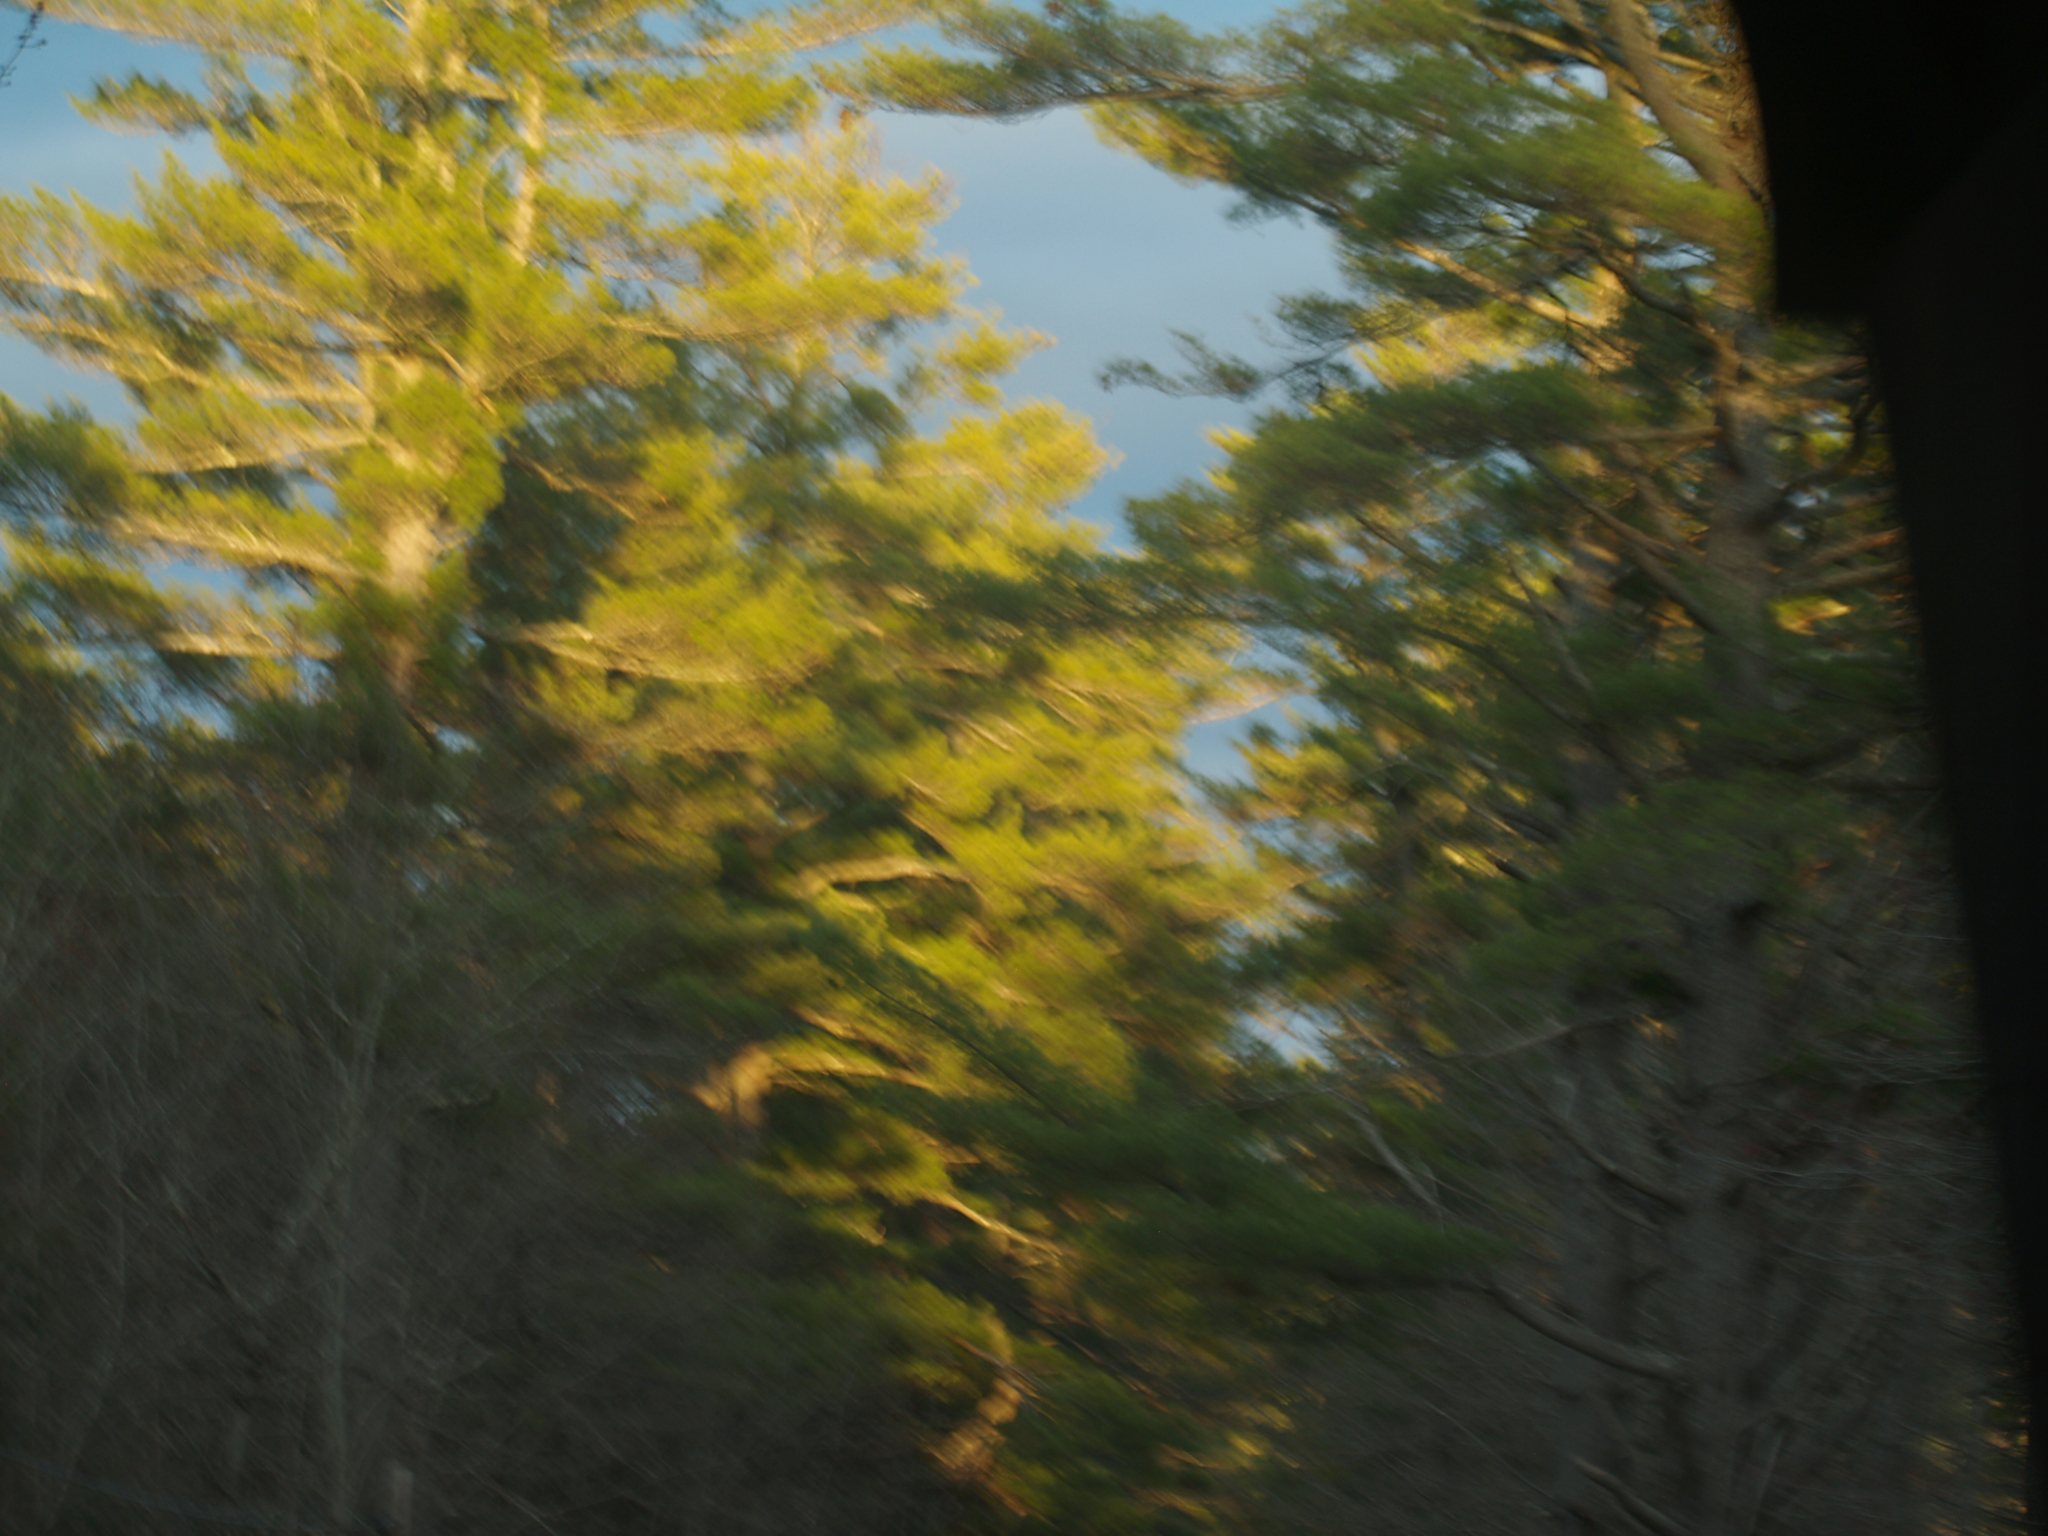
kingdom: Plantae
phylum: Tracheophyta
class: Pinopsida
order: Pinales
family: Pinaceae
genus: Pinus
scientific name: Pinus strobus
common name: Weymouth pine
